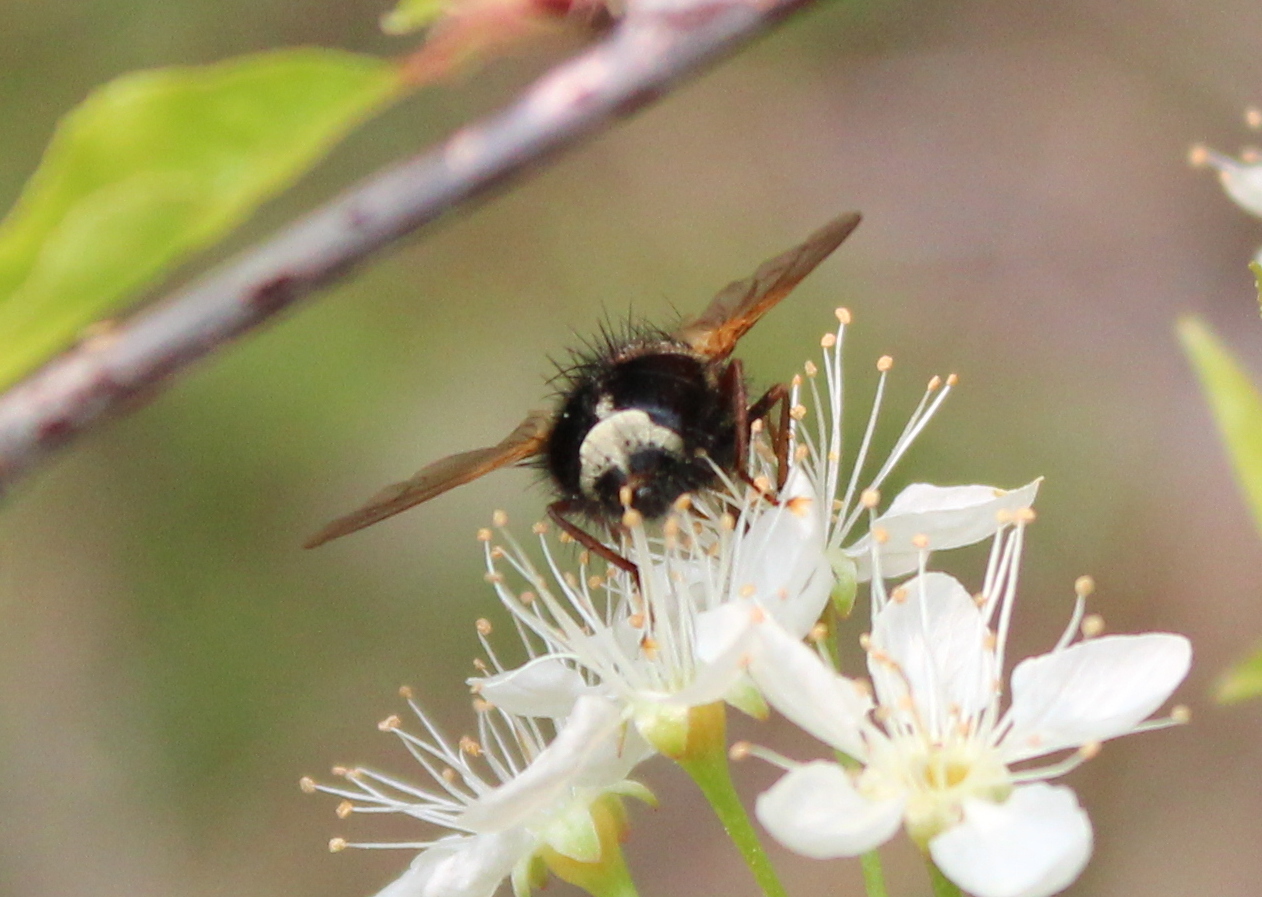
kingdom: Animalia
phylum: Arthropoda
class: Insecta
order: Diptera
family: Tachinidae
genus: Epalpus
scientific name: Epalpus signifer
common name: Early tachinid fly
